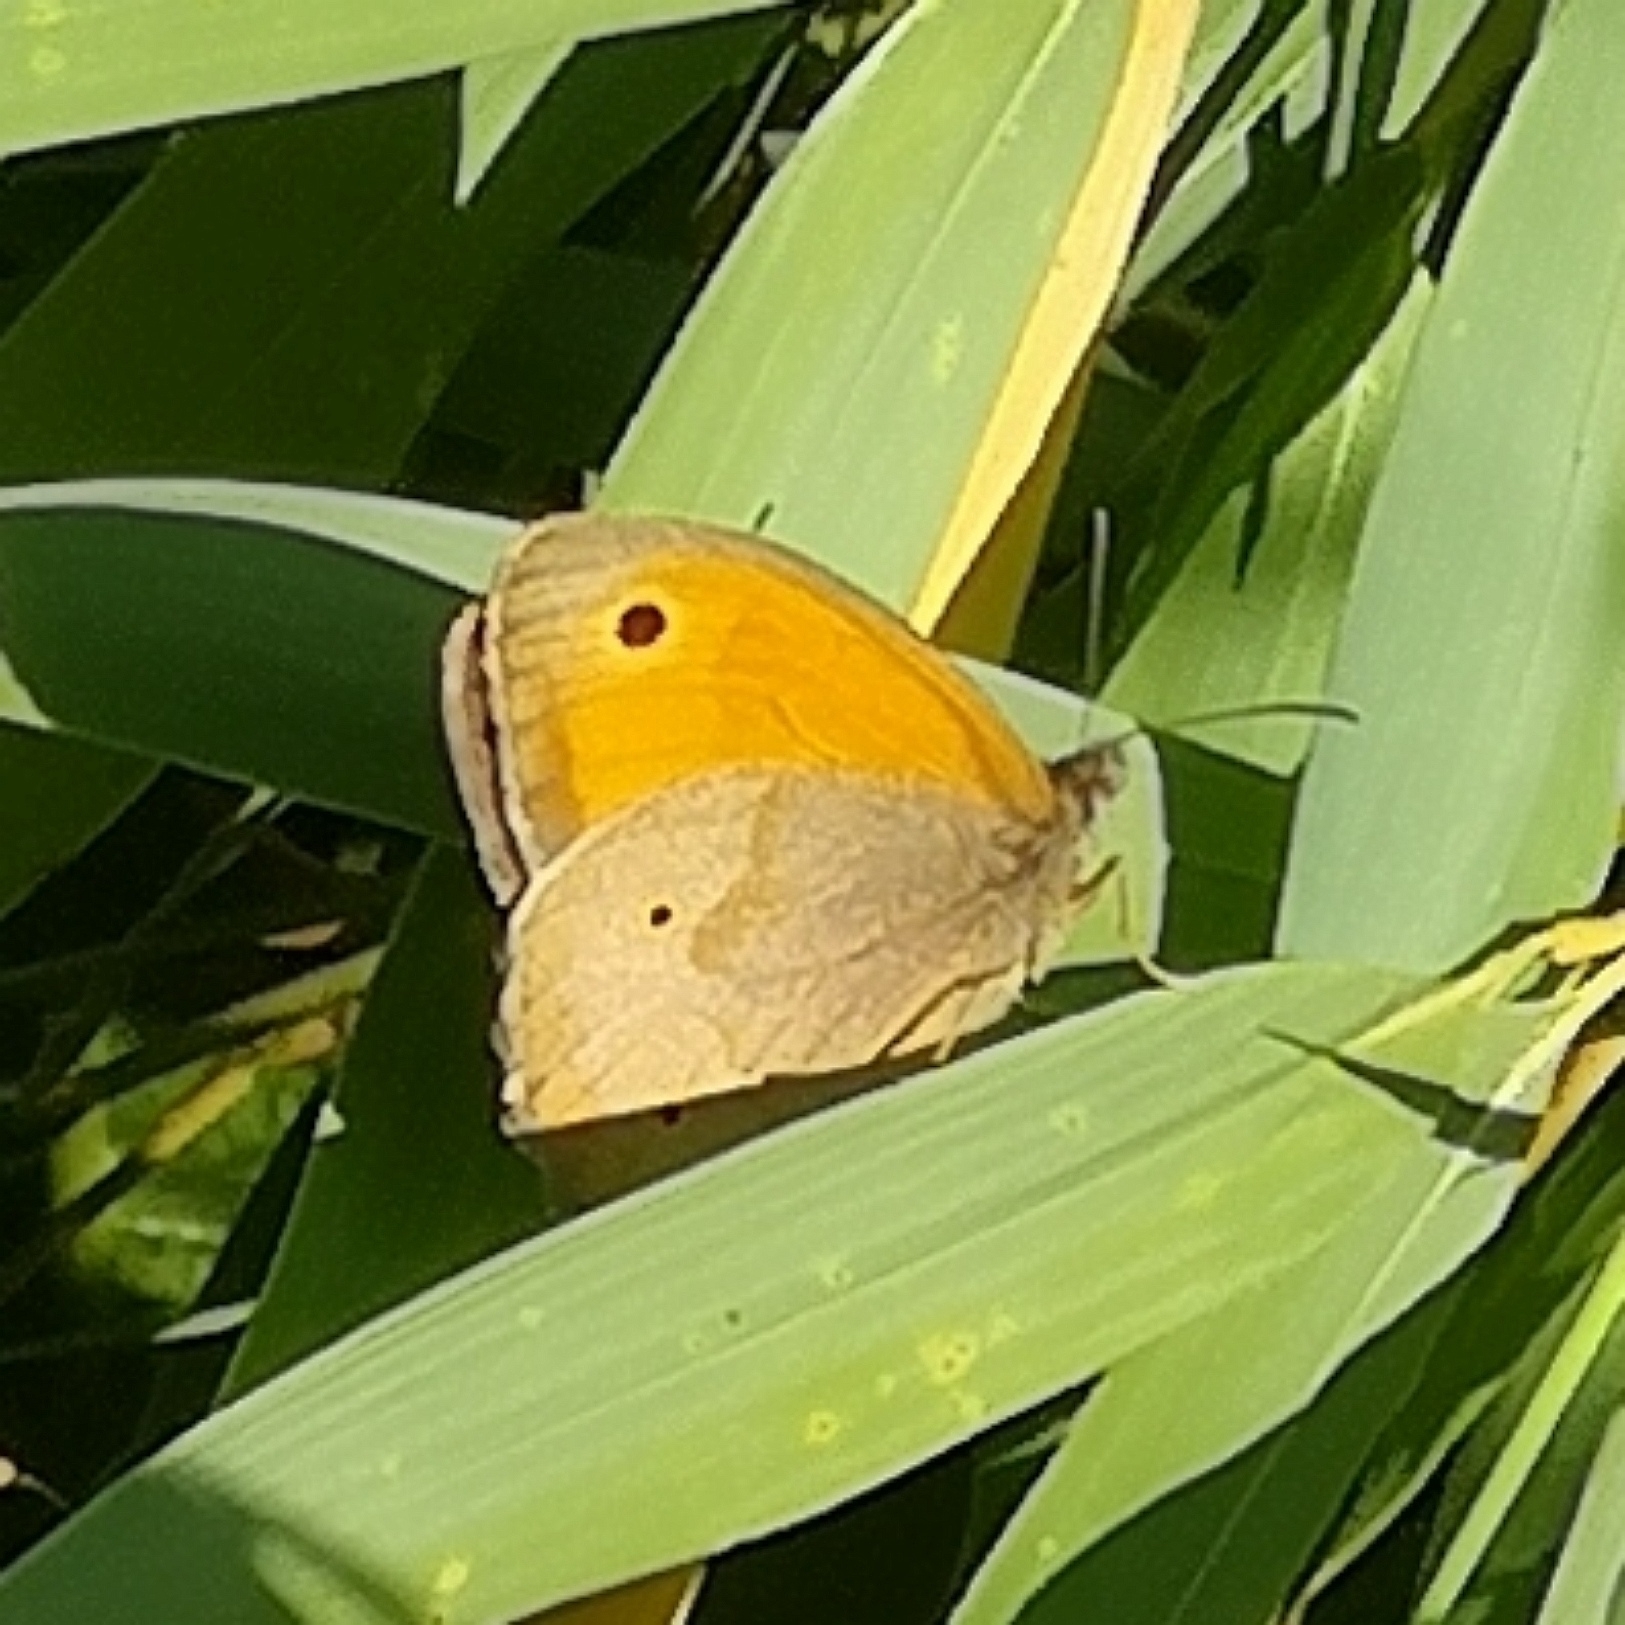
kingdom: Animalia
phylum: Arthropoda
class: Insecta
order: Lepidoptera
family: Nymphalidae
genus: Maniola
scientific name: Maniola jurtina
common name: Meadow brown
